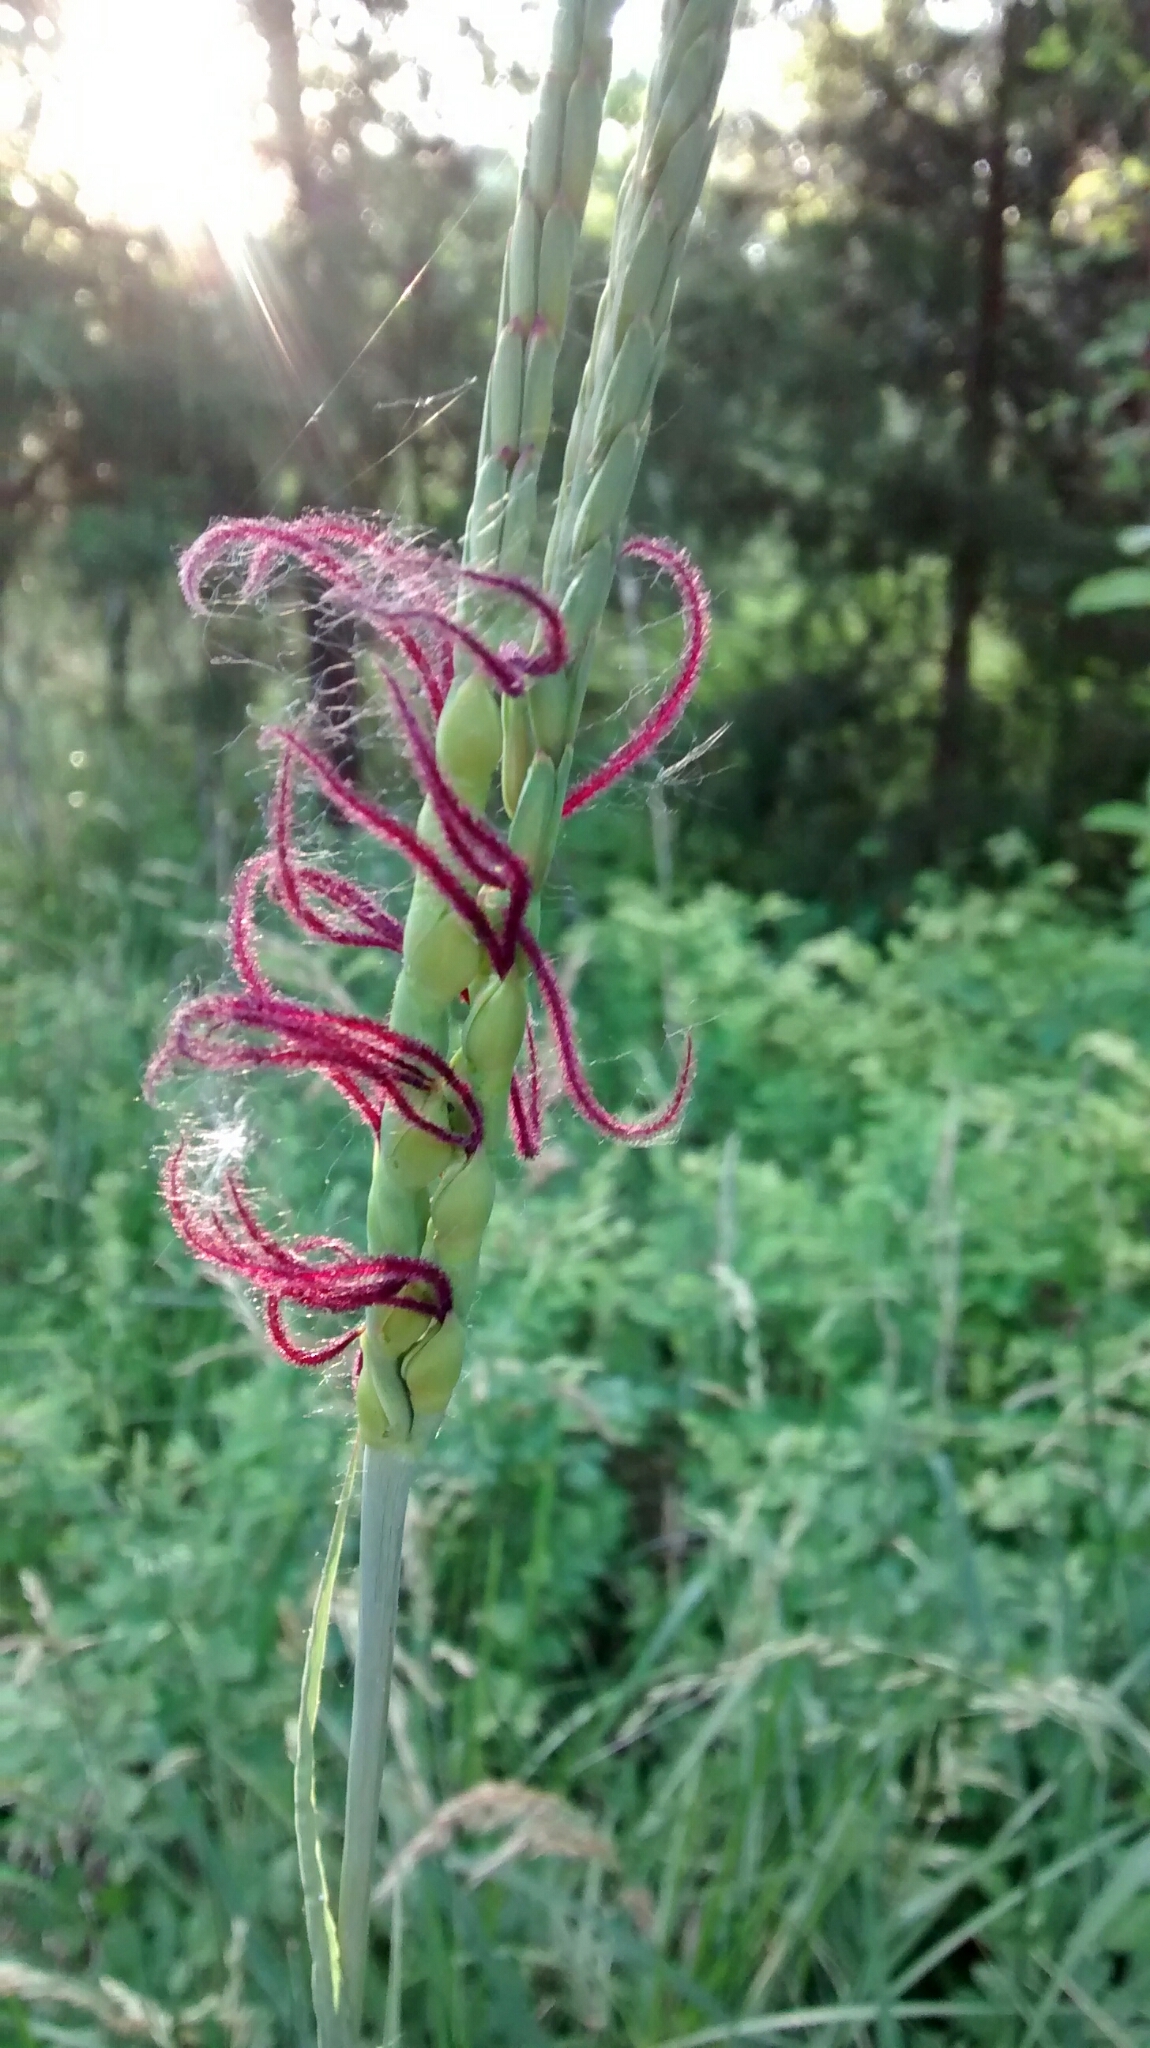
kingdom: Plantae
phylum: Tracheophyta
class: Liliopsida
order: Poales
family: Poaceae
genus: Tripsacum
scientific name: Tripsacum dactyloides
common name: Buffalo-grass
